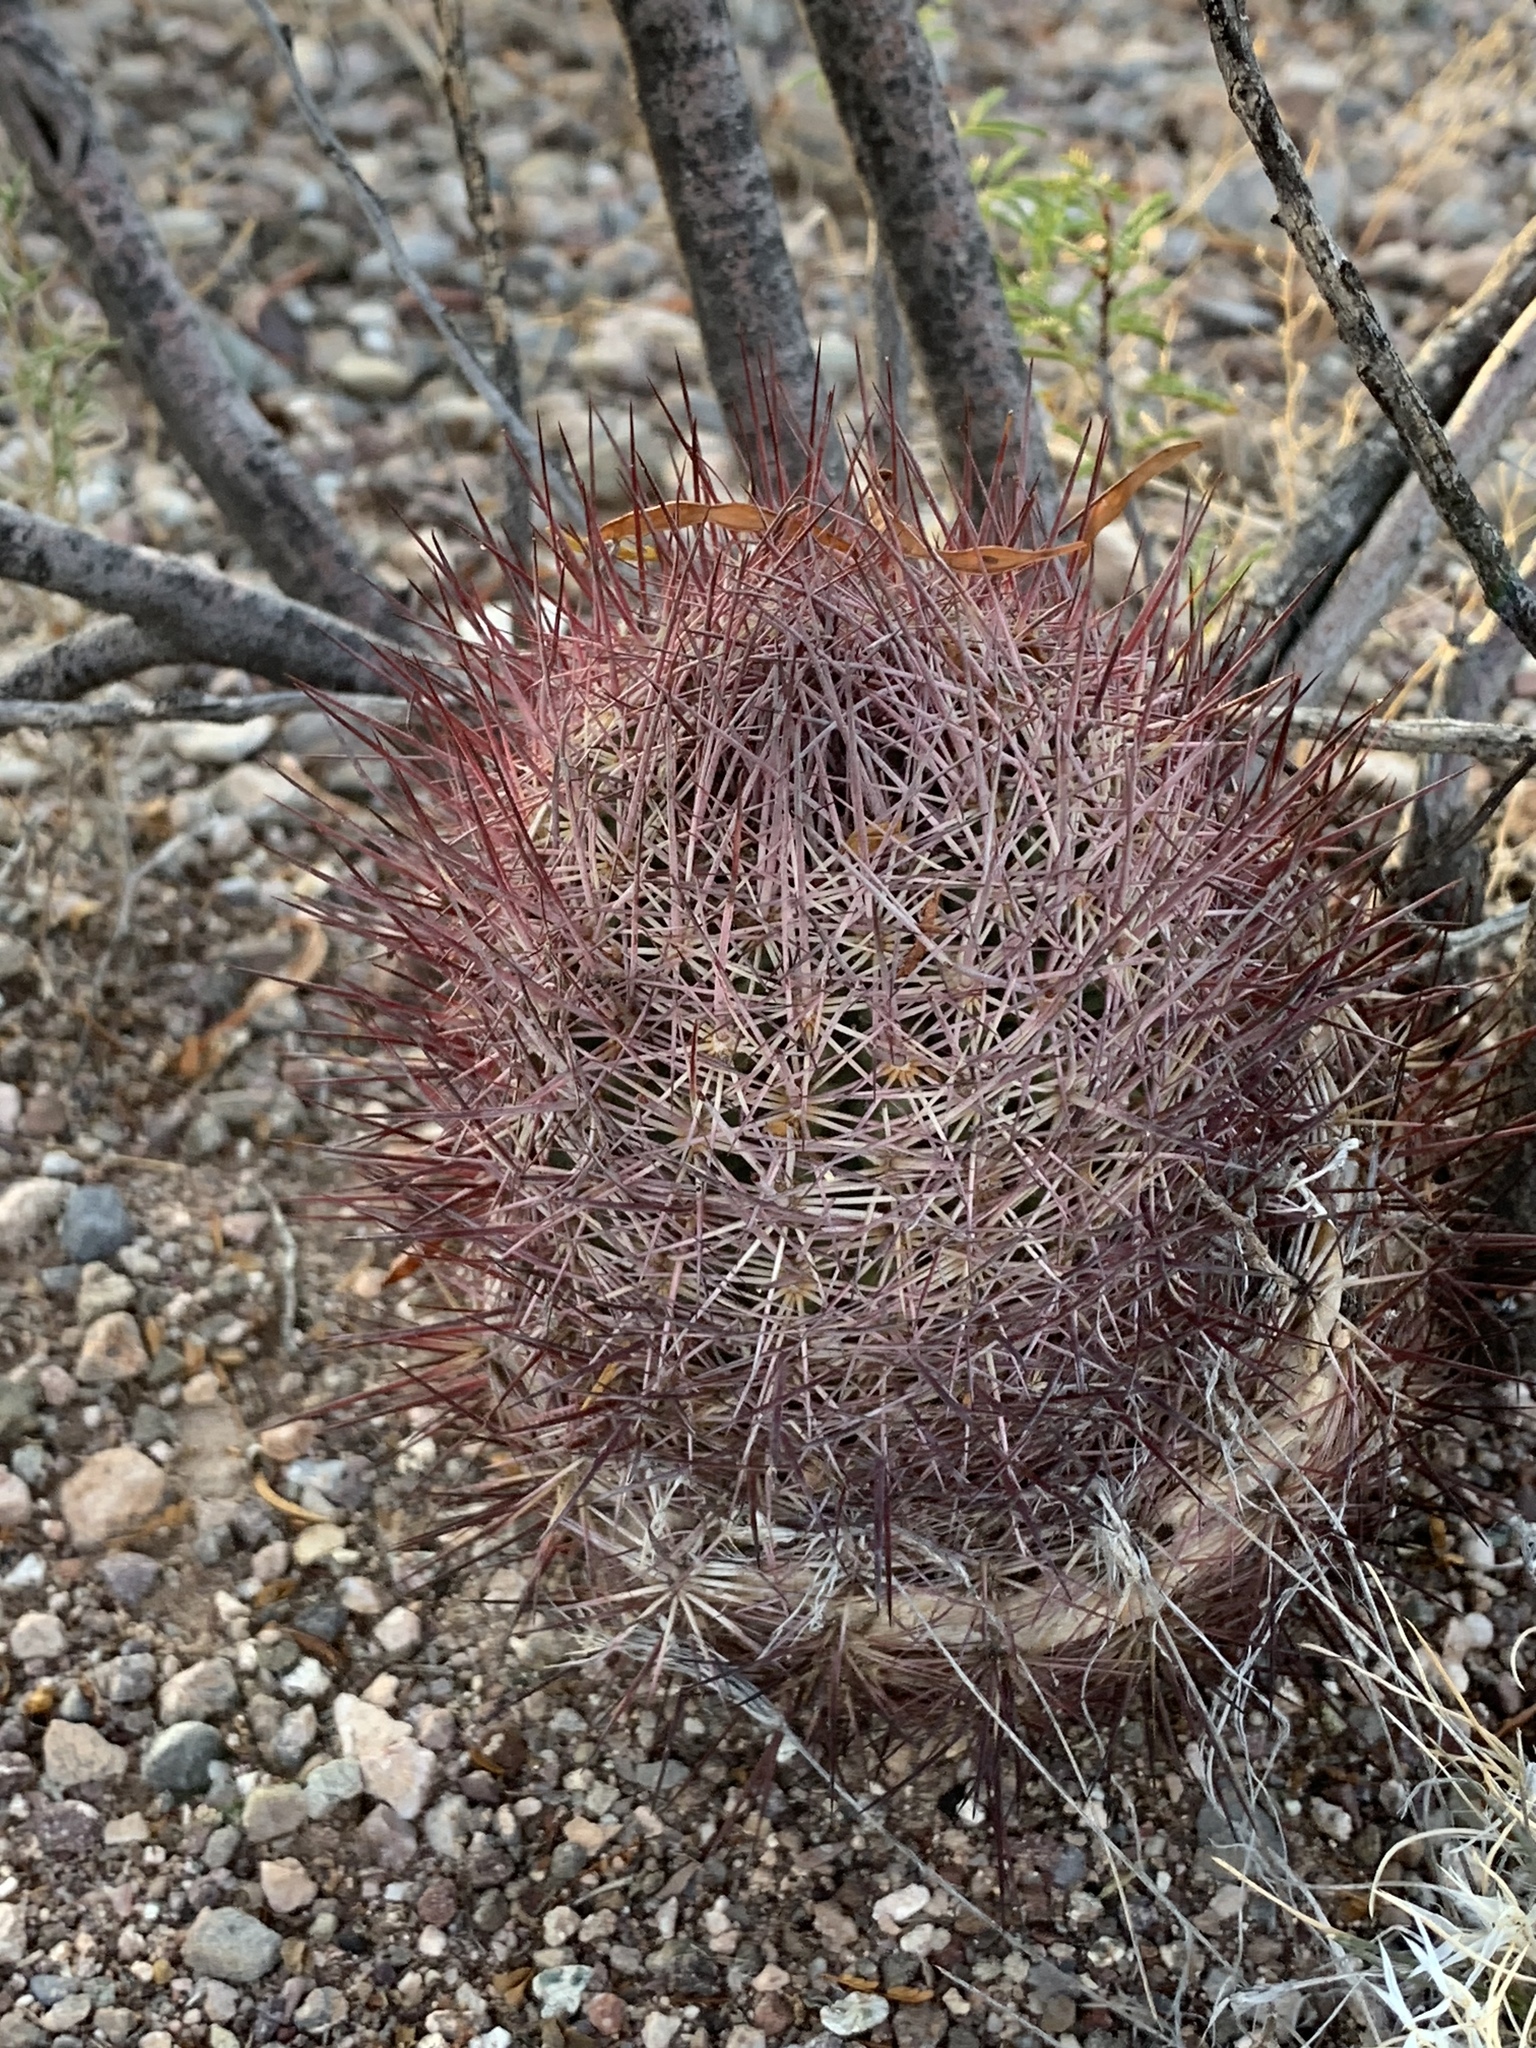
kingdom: Plantae
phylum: Tracheophyta
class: Magnoliopsida
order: Caryophyllales
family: Cactaceae
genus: Sclerocactus
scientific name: Sclerocactus johnsonii
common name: Eight-spine fishhook cactus
